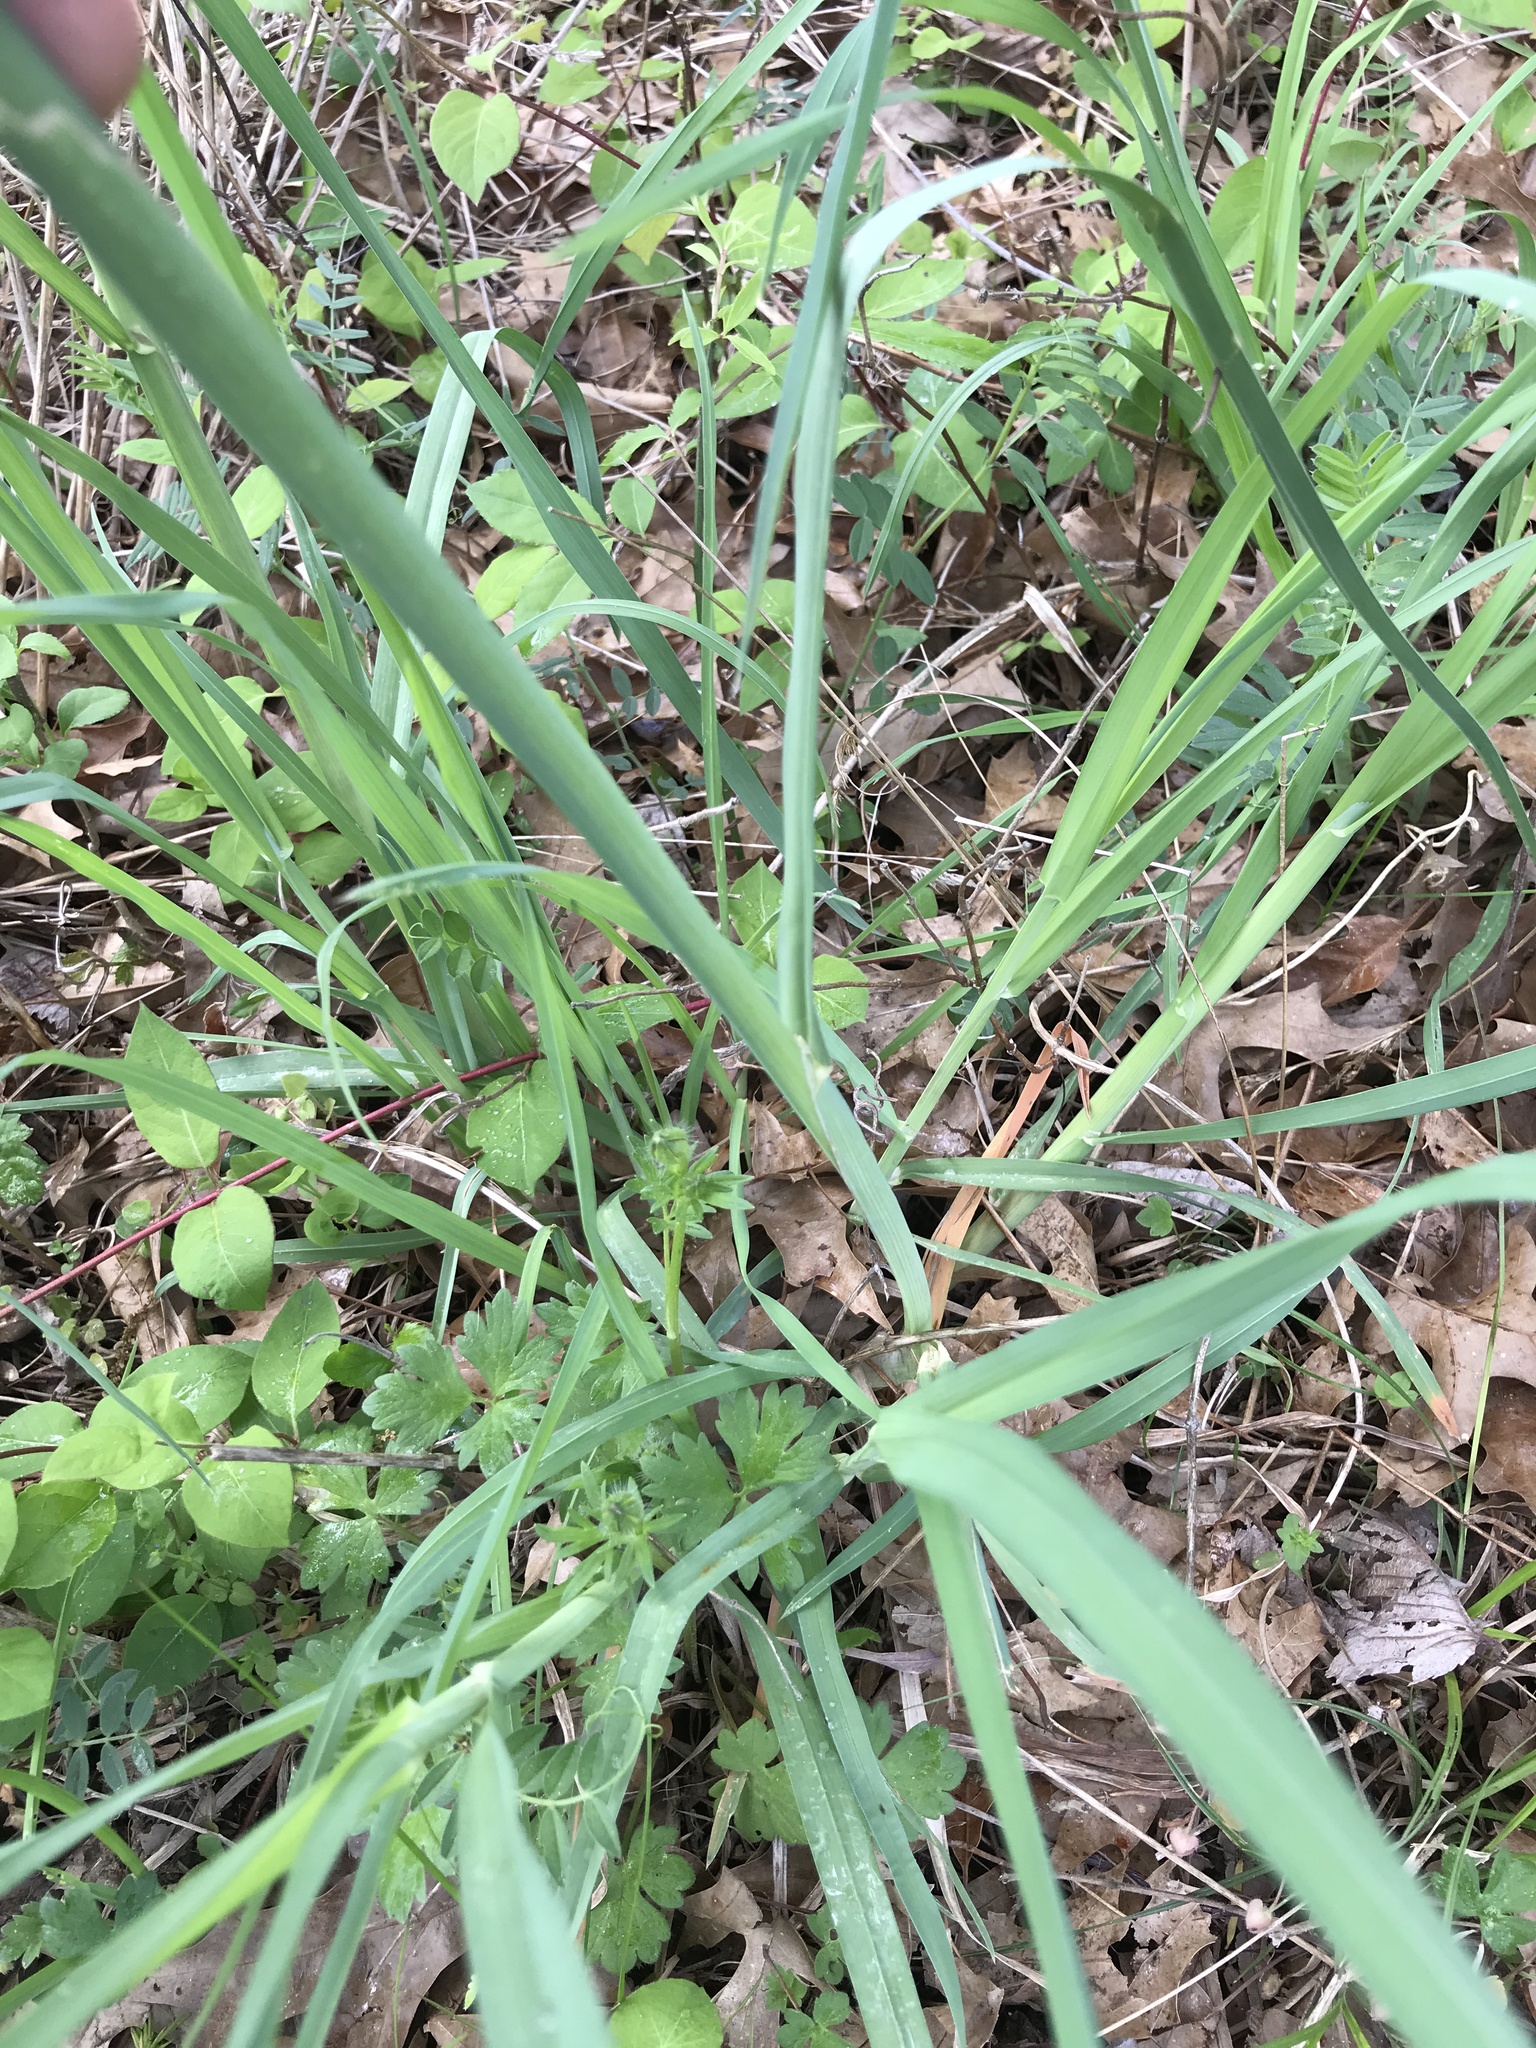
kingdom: Plantae
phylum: Tracheophyta
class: Liliopsida
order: Poales
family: Poaceae
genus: Dactylis
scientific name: Dactylis glomerata
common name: Orchardgrass
